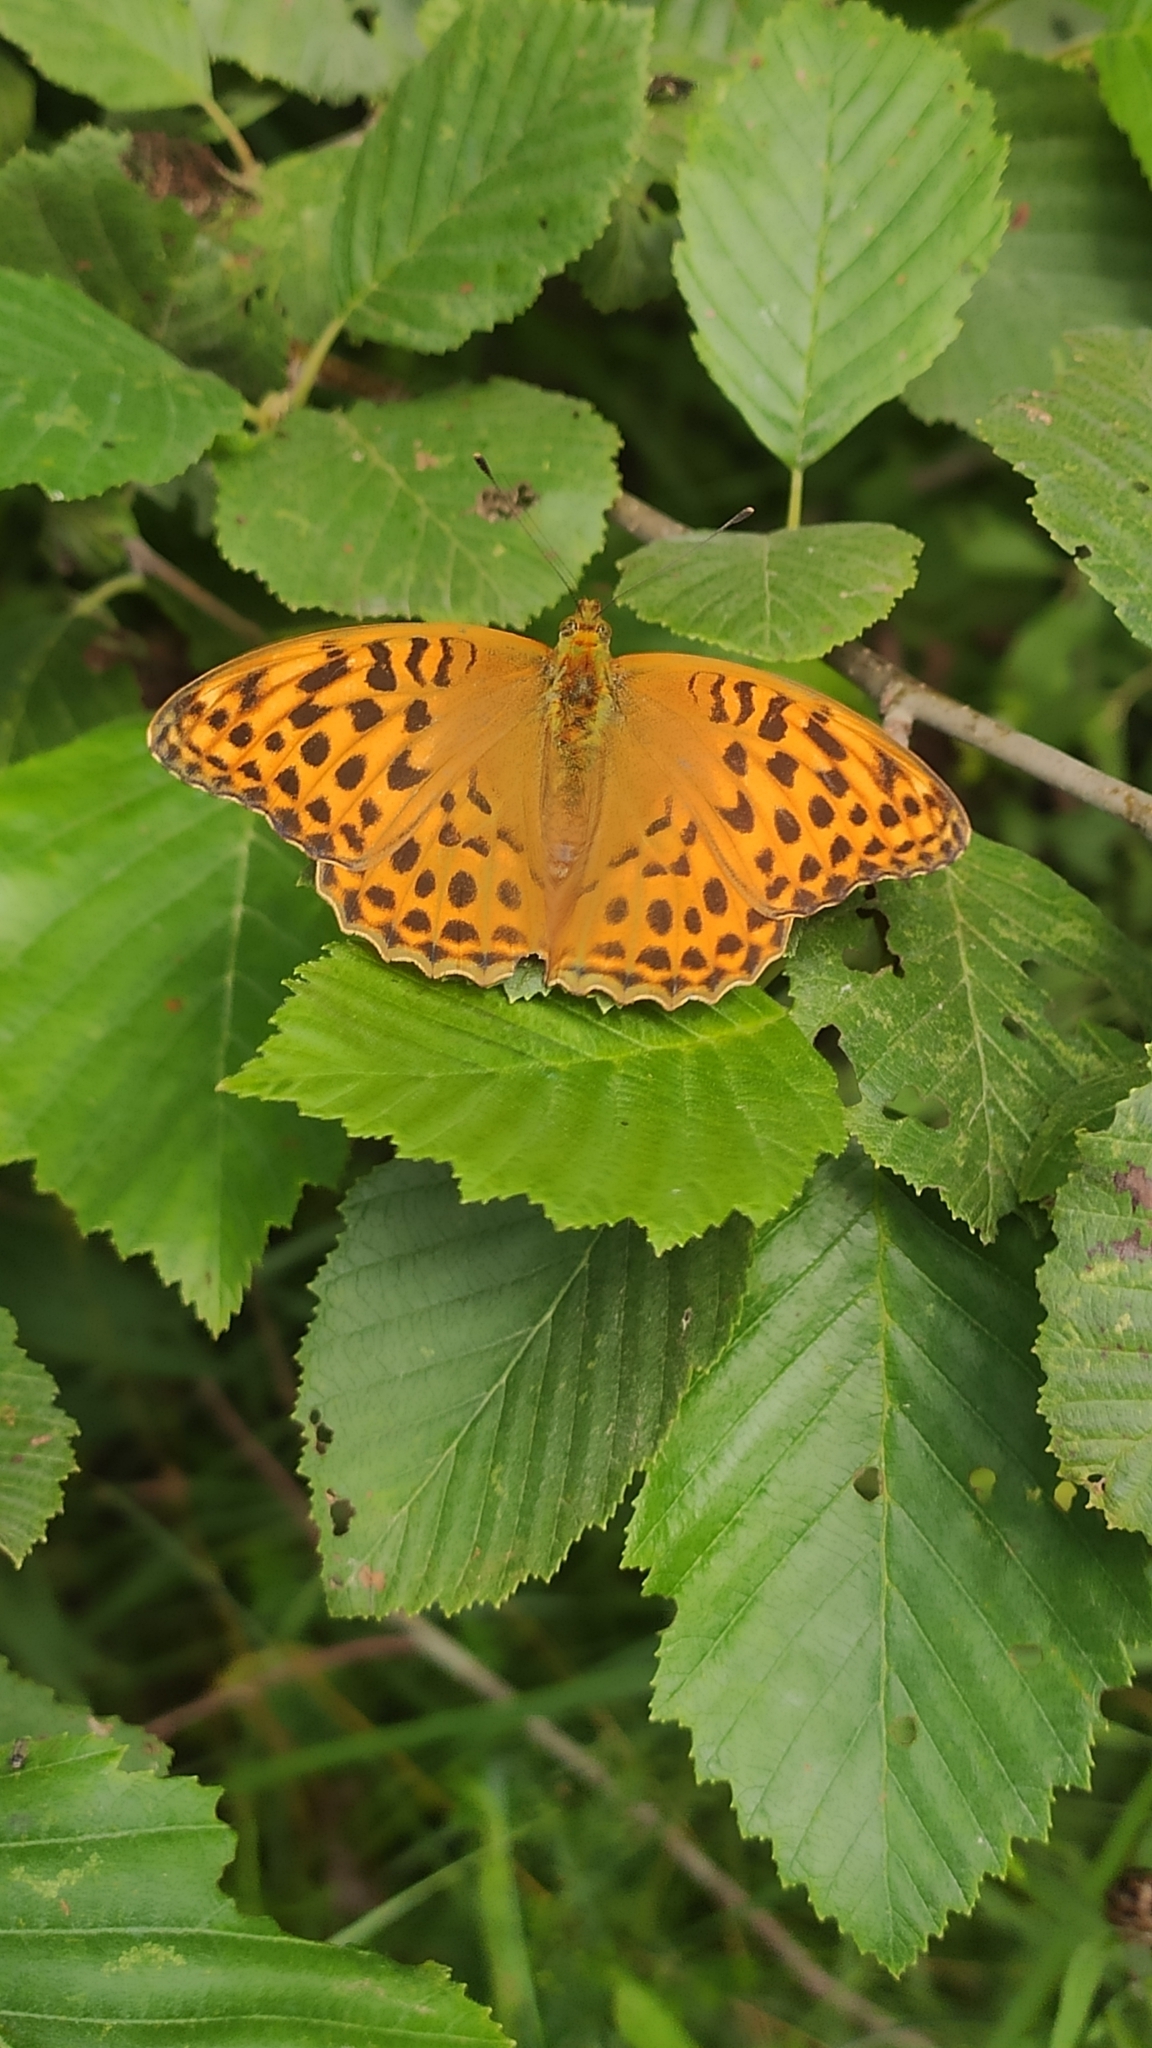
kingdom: Animalia
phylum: Arthropoda
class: Insecta
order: Lepidoptera
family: Nymphalidae
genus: Argynnis
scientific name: Argynnis paphia
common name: Silver-washed fritillary
